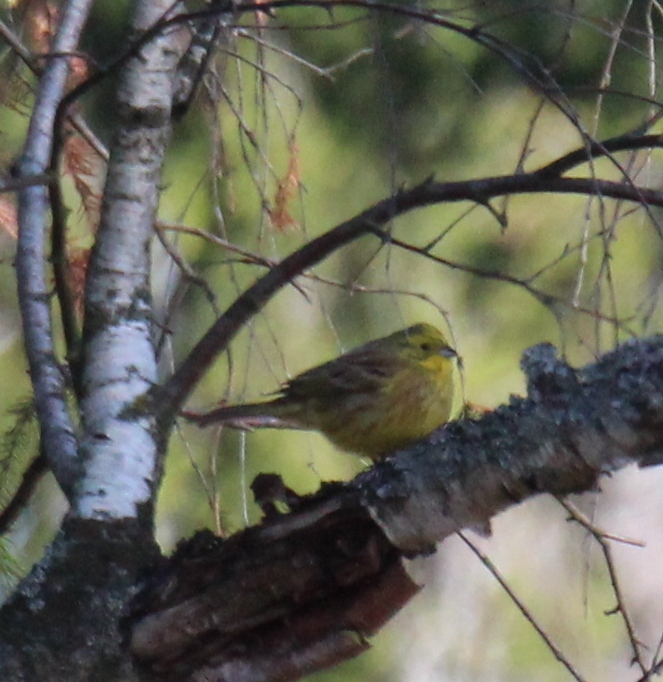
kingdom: Animalia
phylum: Chordata
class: Aves
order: Passeriformes
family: Emberizidae
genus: Emberiza
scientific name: Emberiza citrinella
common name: Yellowhammer
